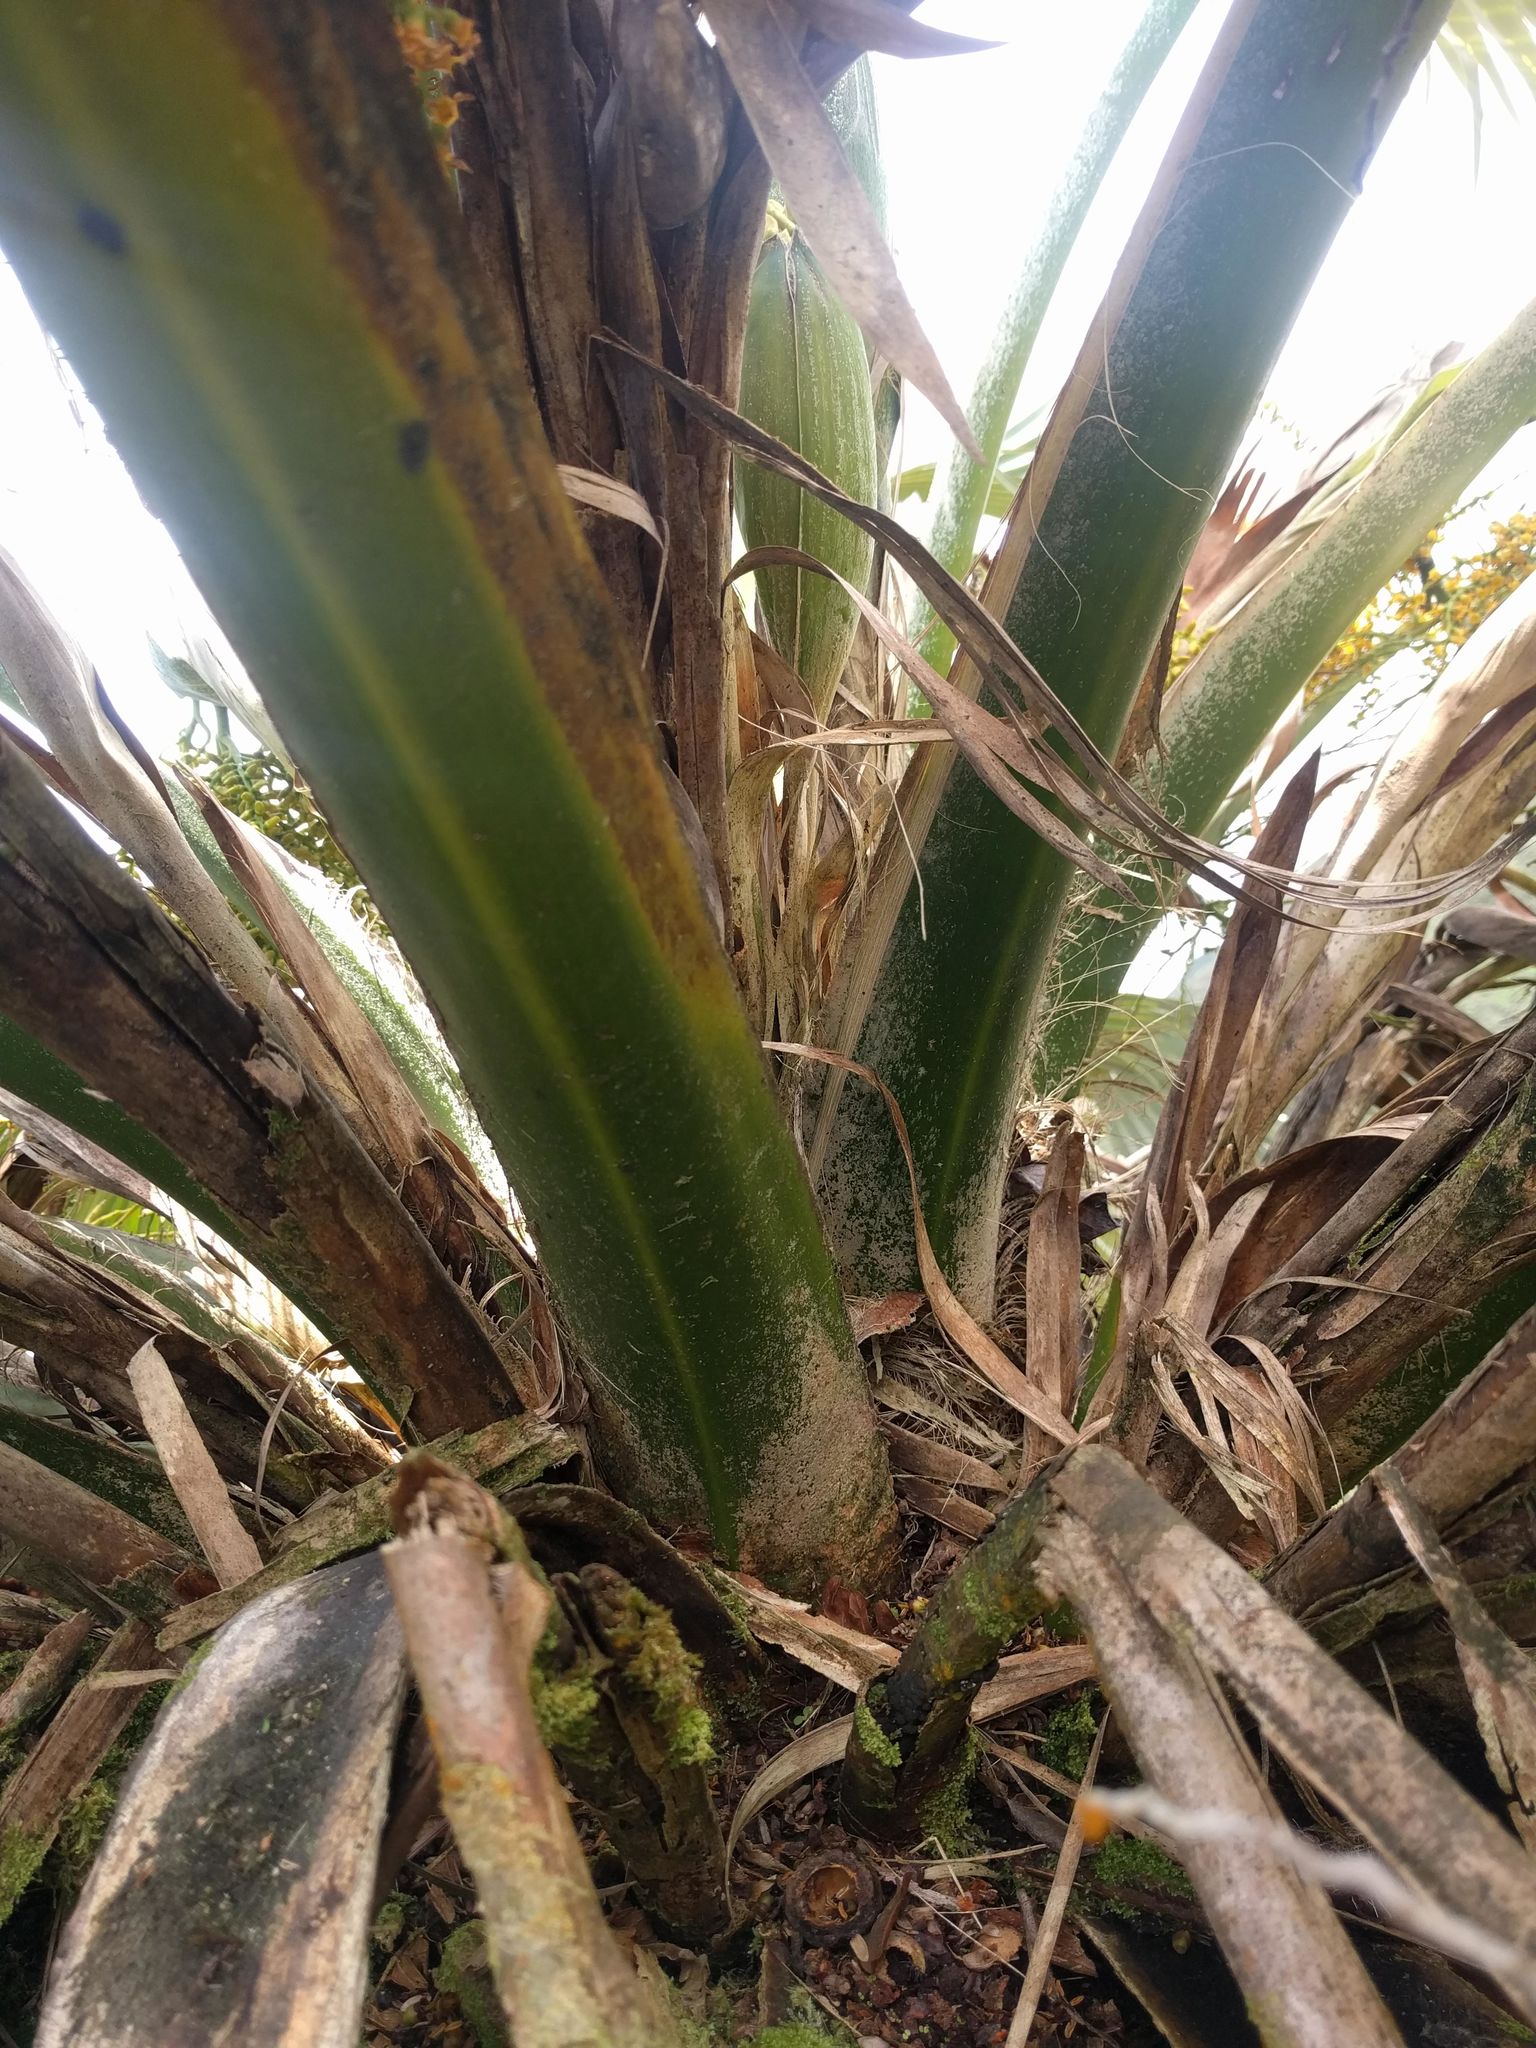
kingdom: Plantae
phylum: Tracheophyta
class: Liliopsida
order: Arecales
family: Arecaceae
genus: Pritchardia
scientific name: Pritchardia martii
